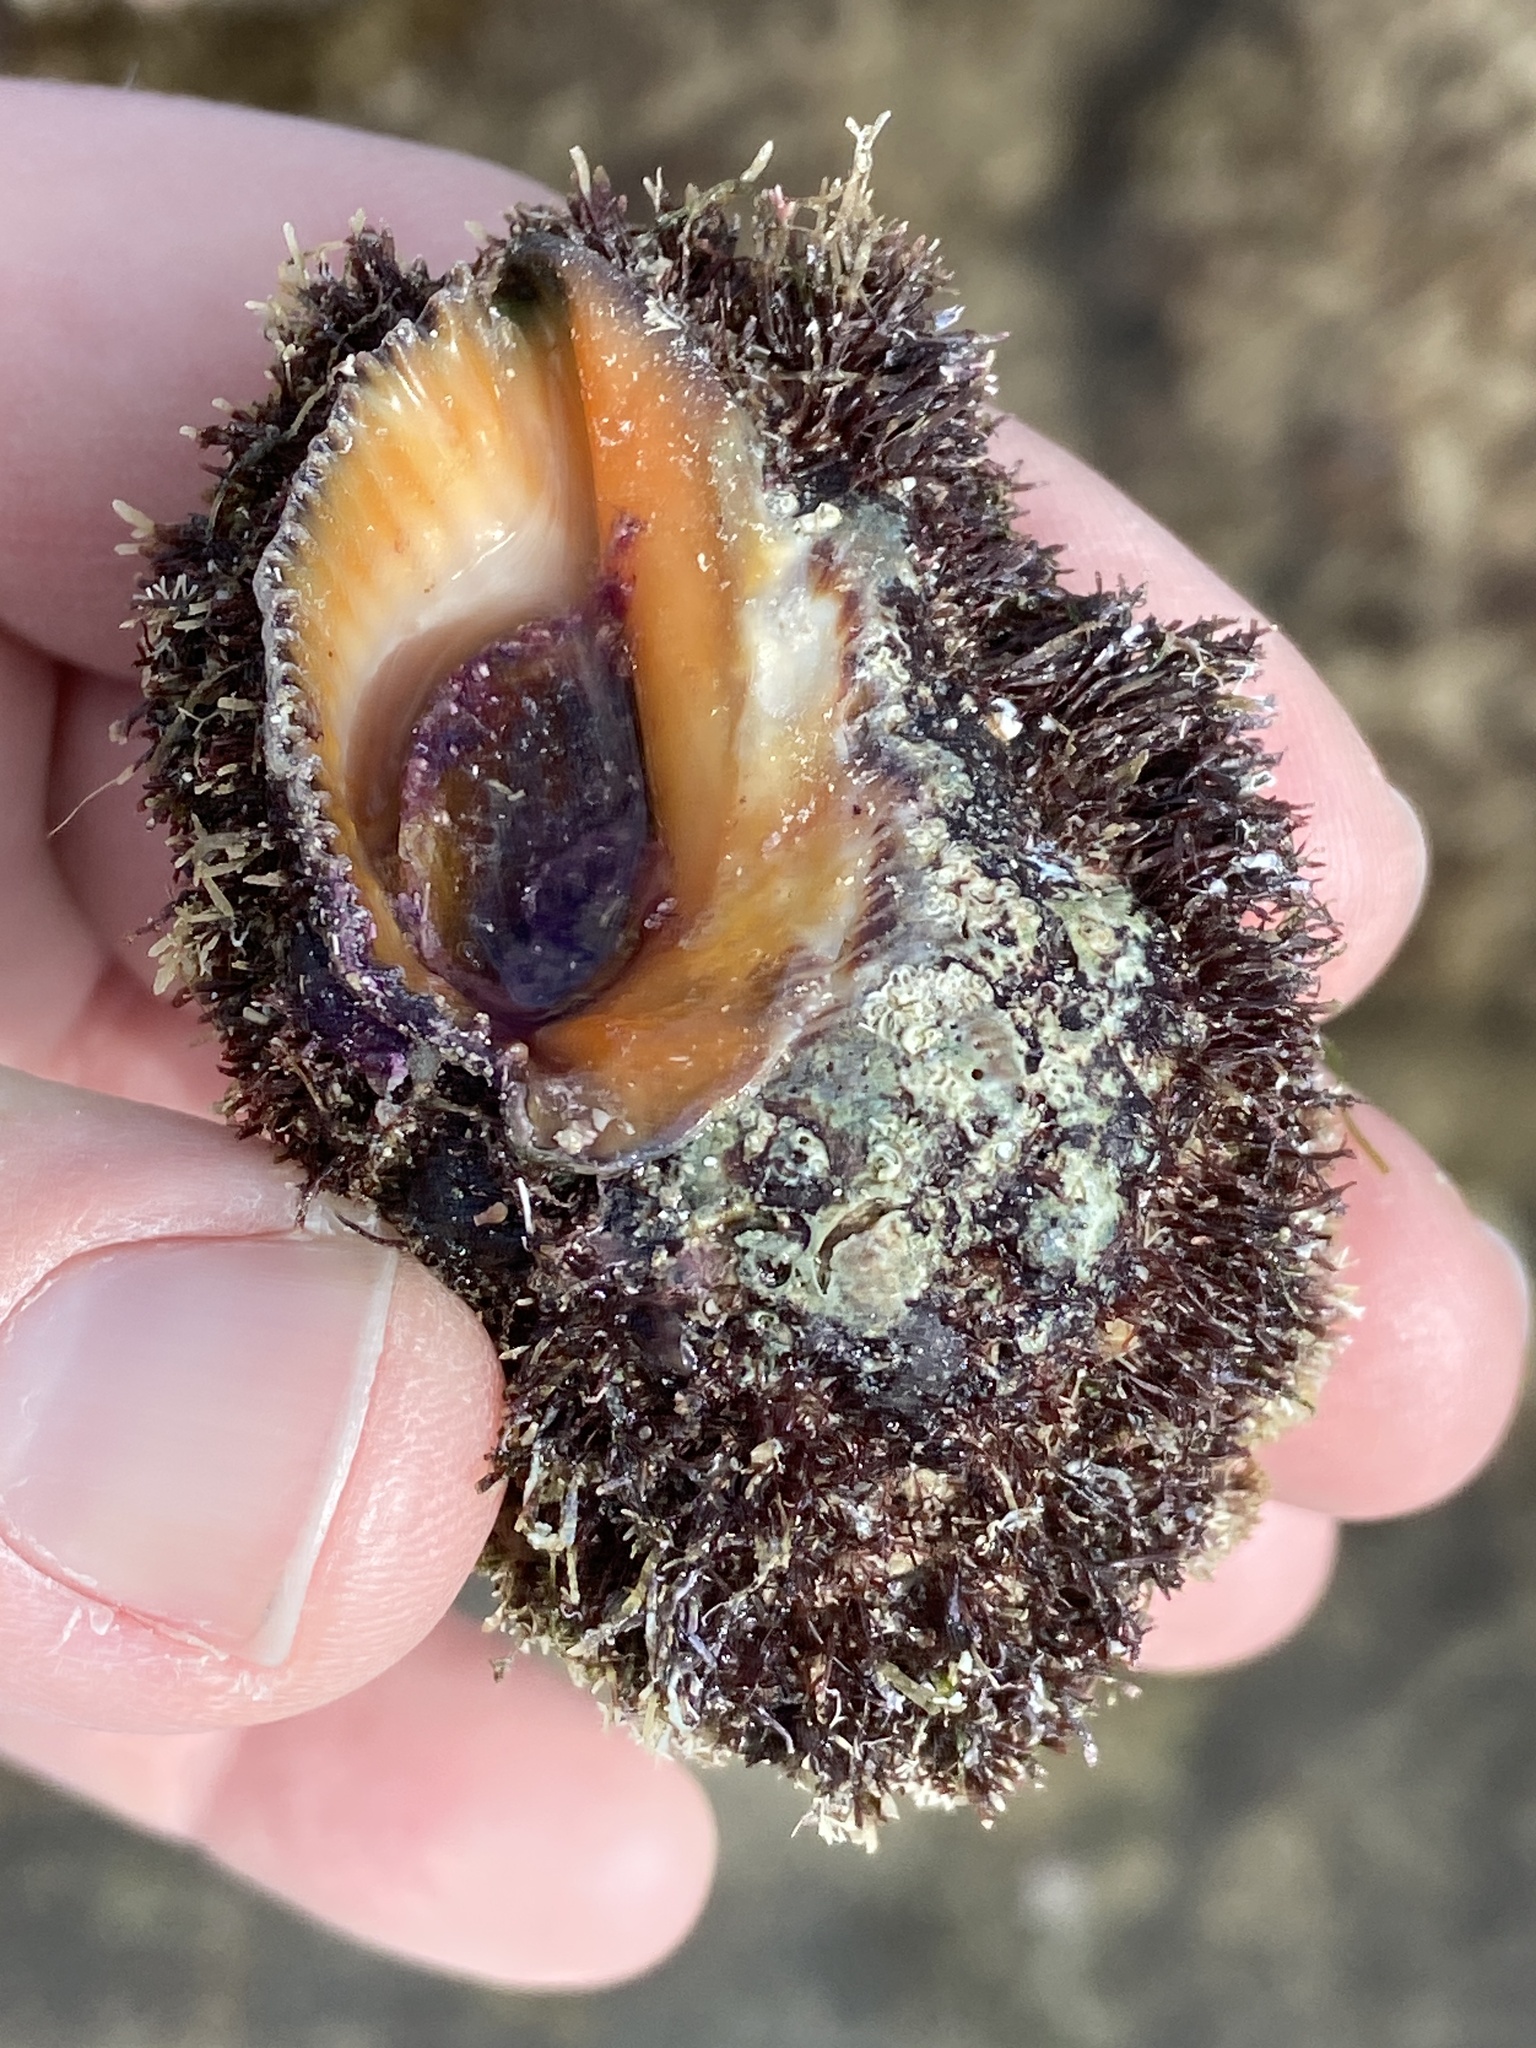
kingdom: Animalia
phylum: Mollusca
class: Gastropoda
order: Neogastropoda
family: Muricidae
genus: Stramonita
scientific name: Stramonita haemastoma
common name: Florida dog winkle
